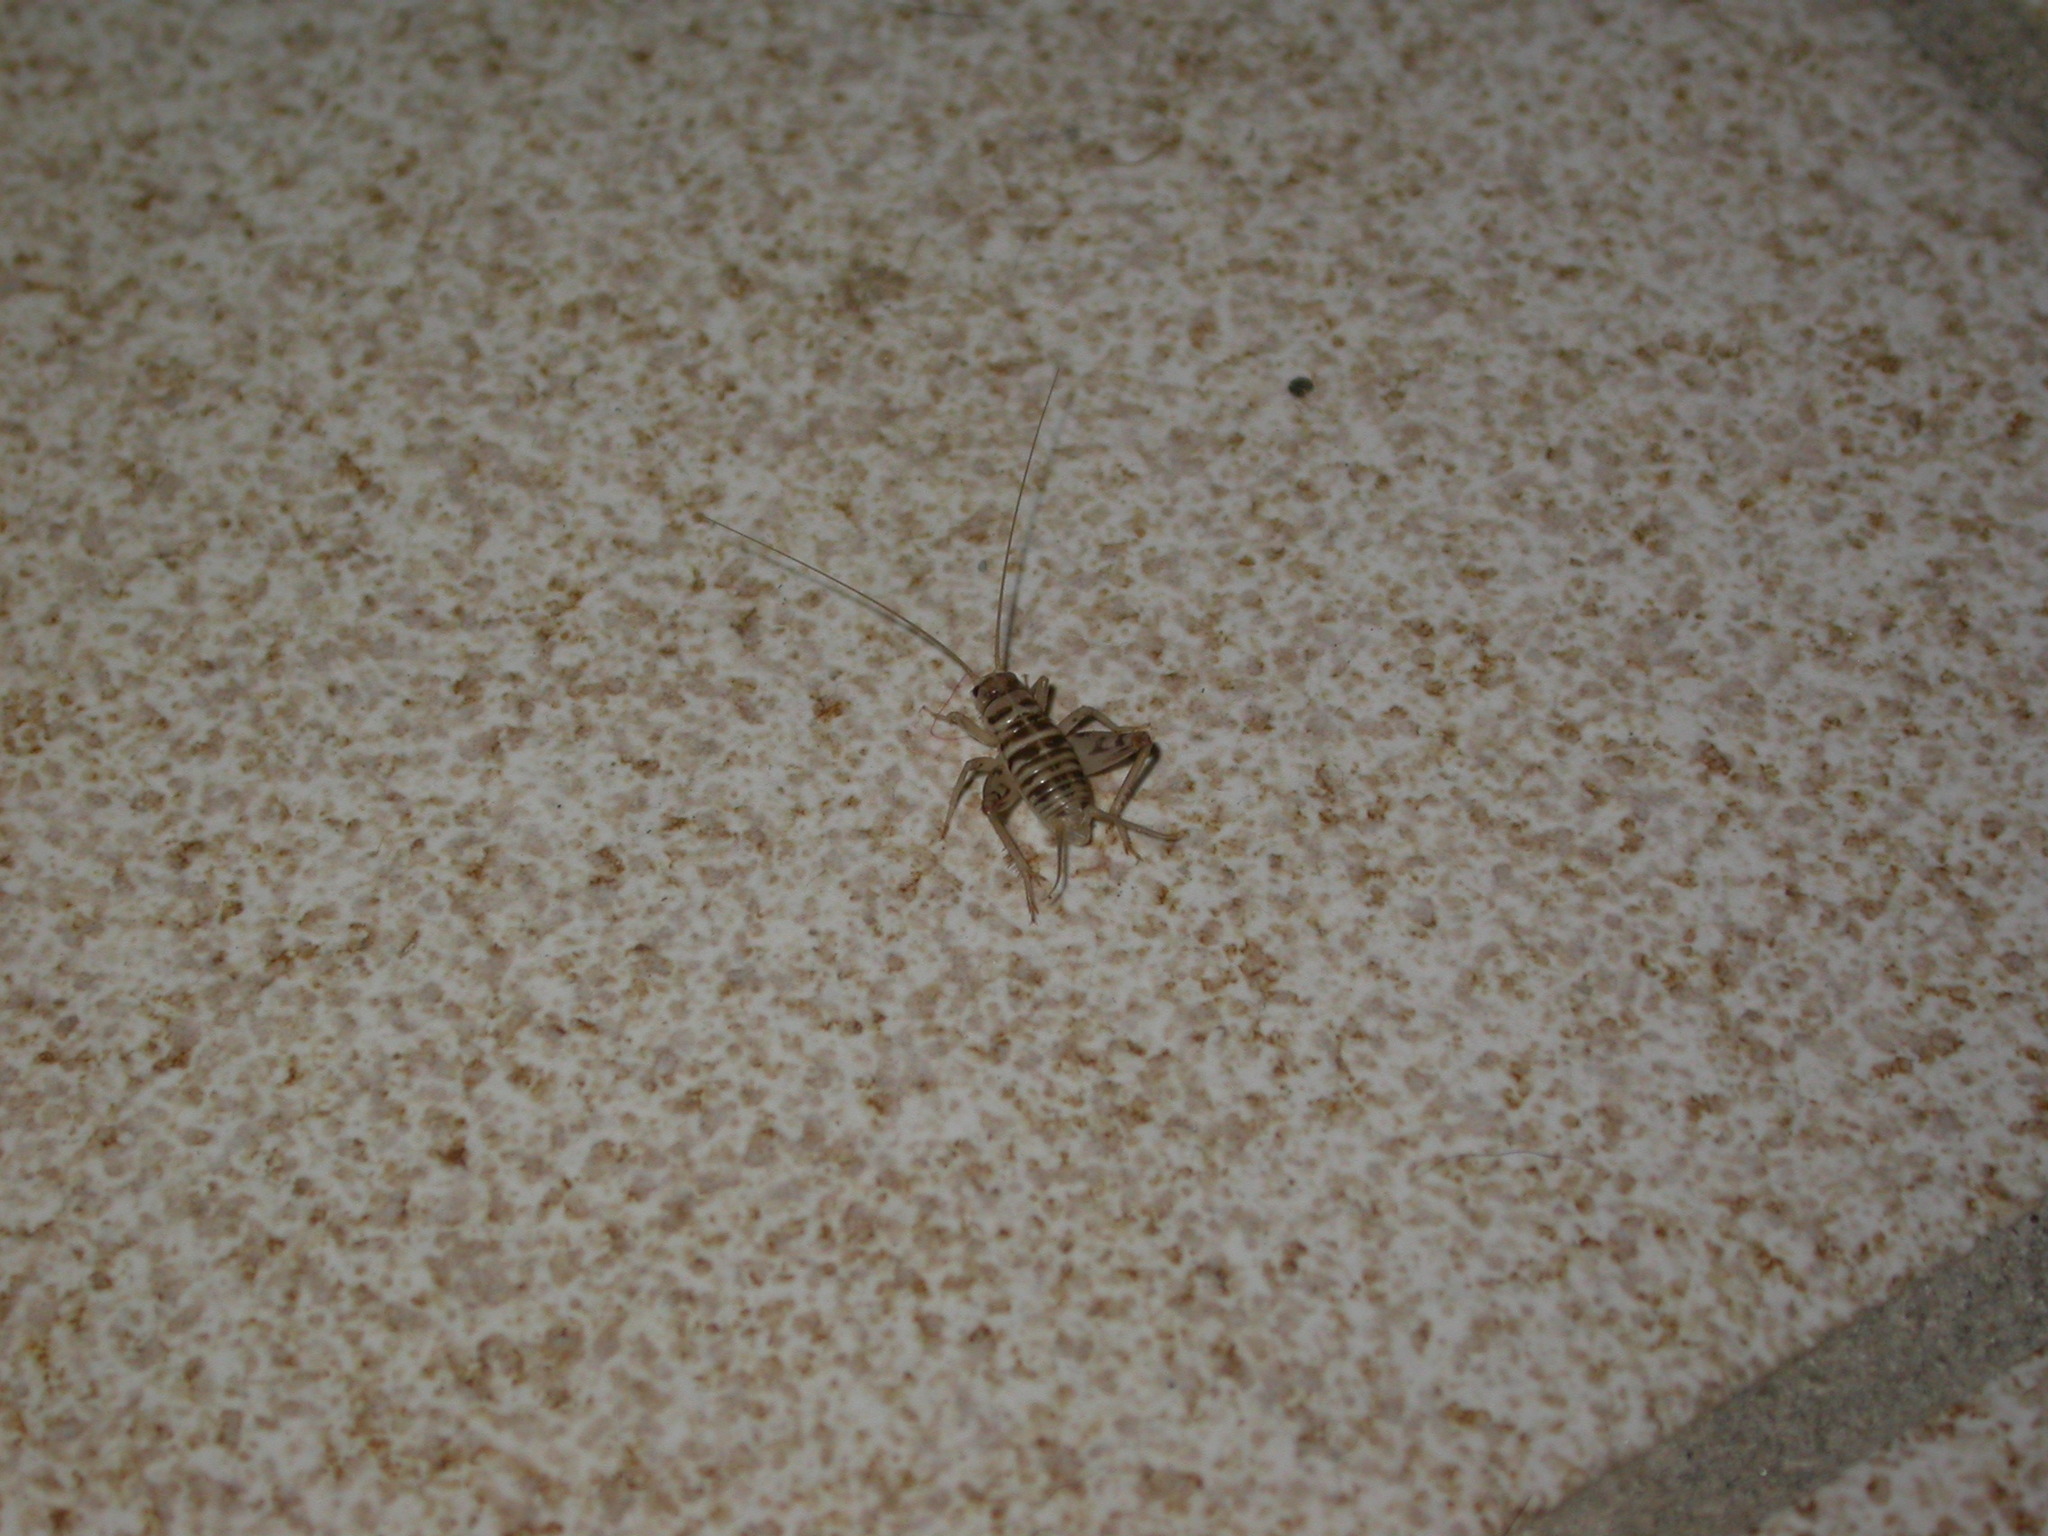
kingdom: Animalia
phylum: Arthropoda
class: Insecta
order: Orthoptera
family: Gryllidae
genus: Gryllomorpha
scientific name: Gryllomorpha uclensis
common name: Western crevice-cricket
